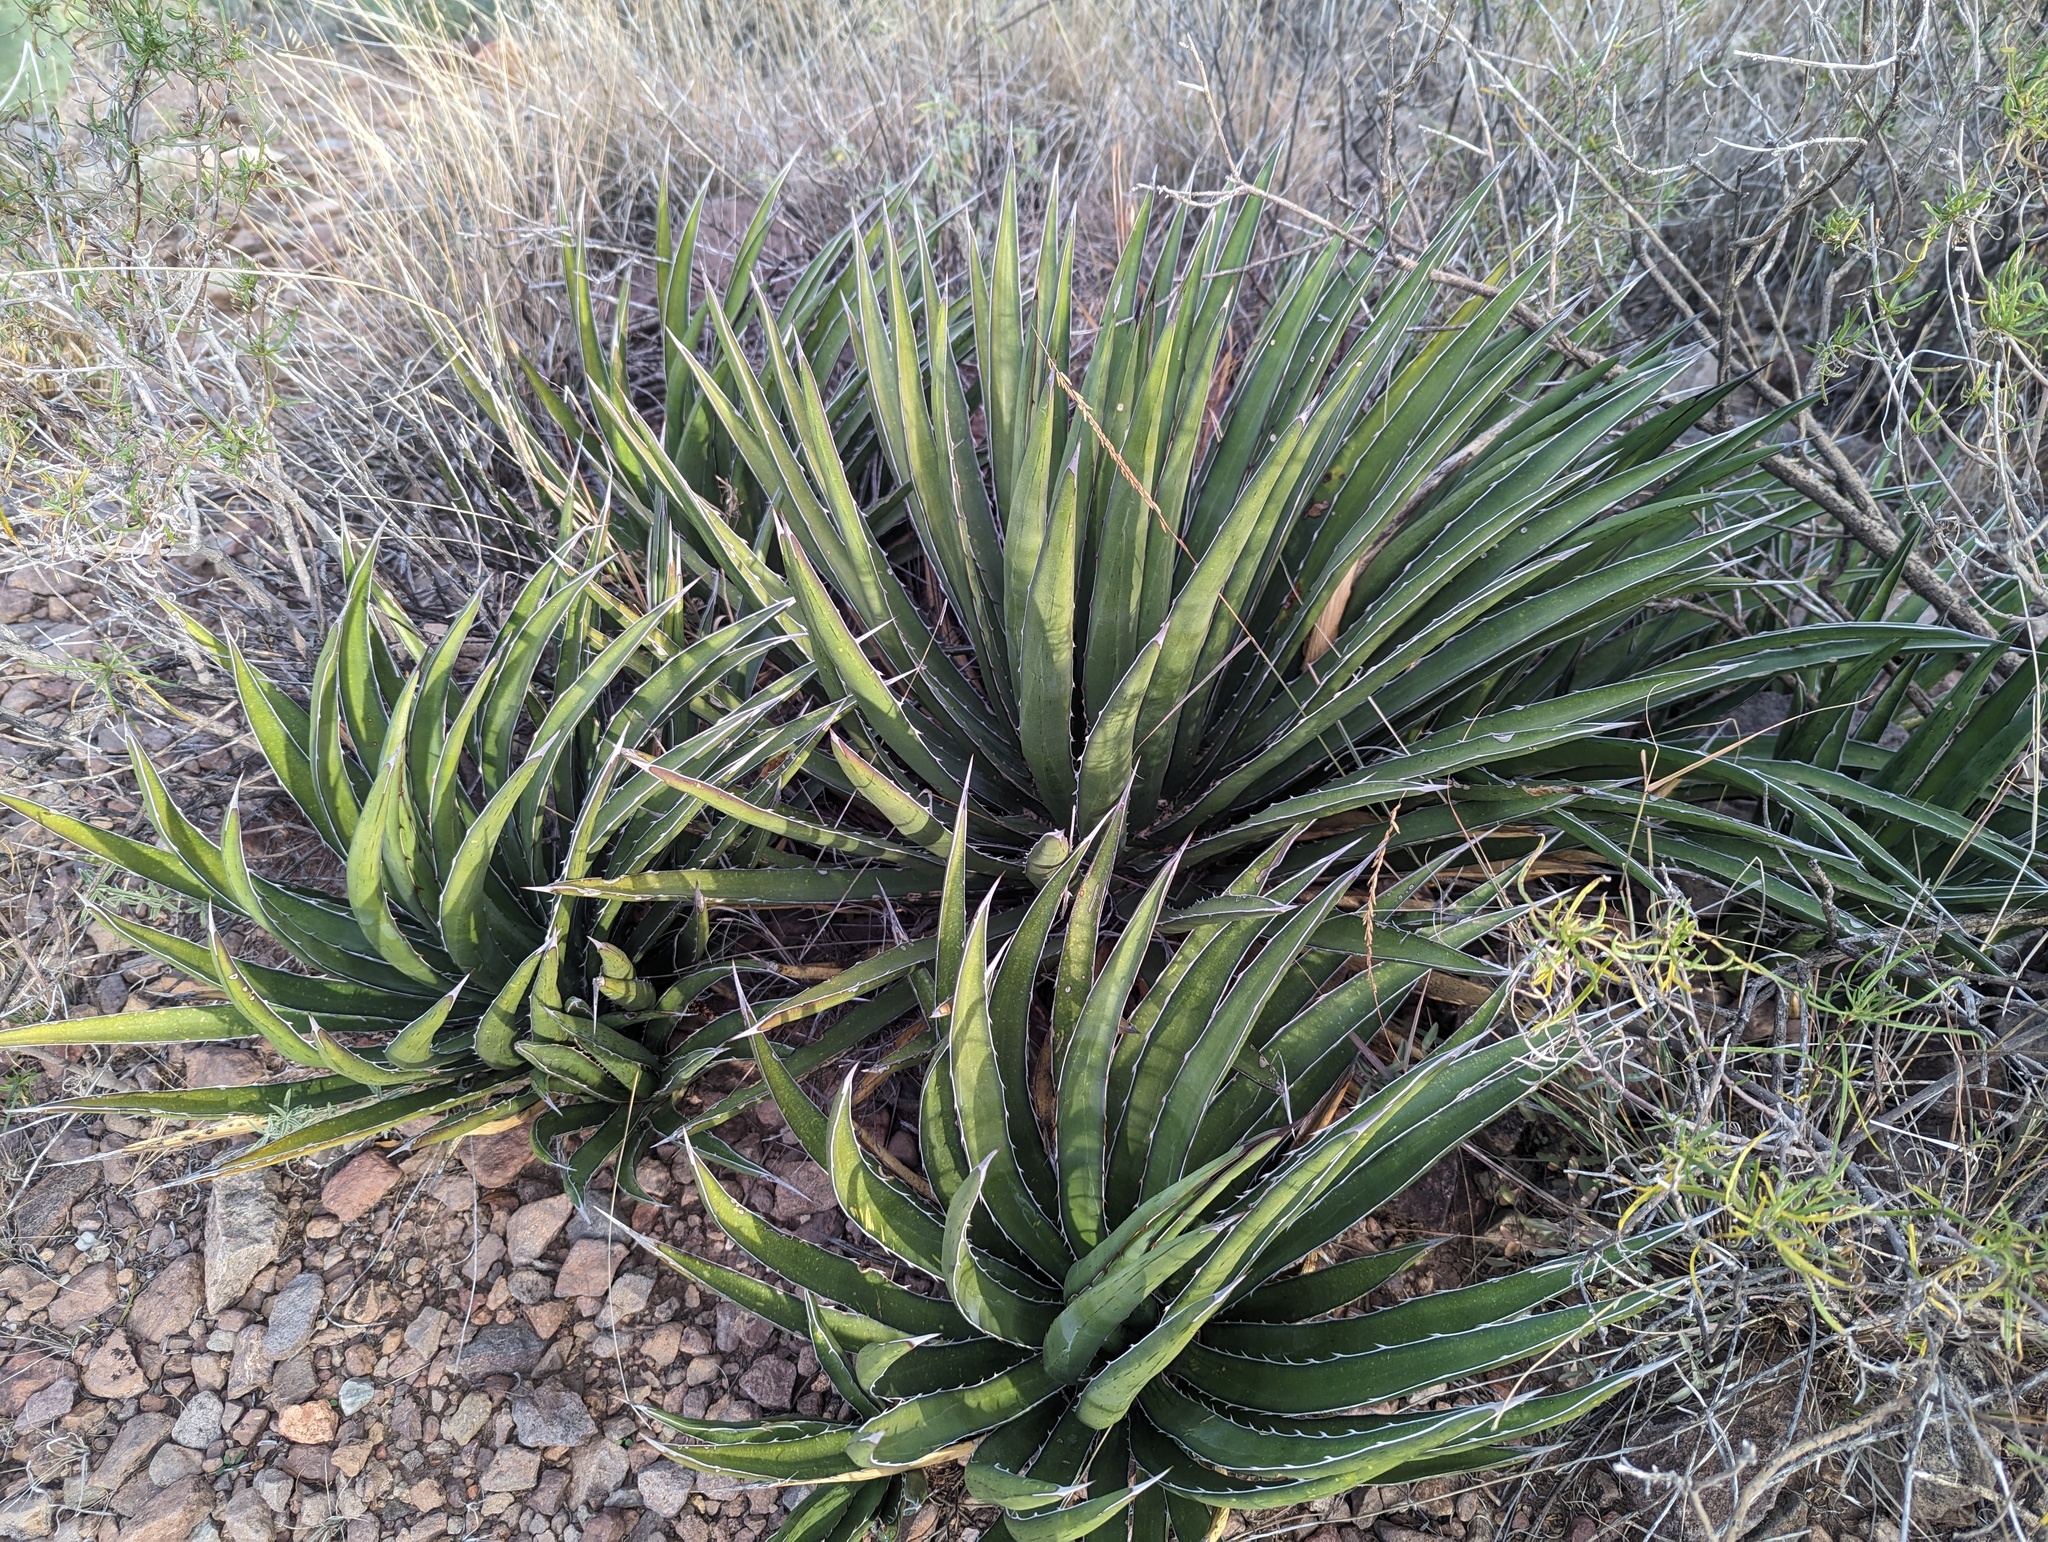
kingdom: Plantae
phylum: Tracheophyta
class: Liliopsida
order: Asparagales
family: Asparagaceae
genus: Agave
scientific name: Agave lechuguilla
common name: Lecheguilla agave
